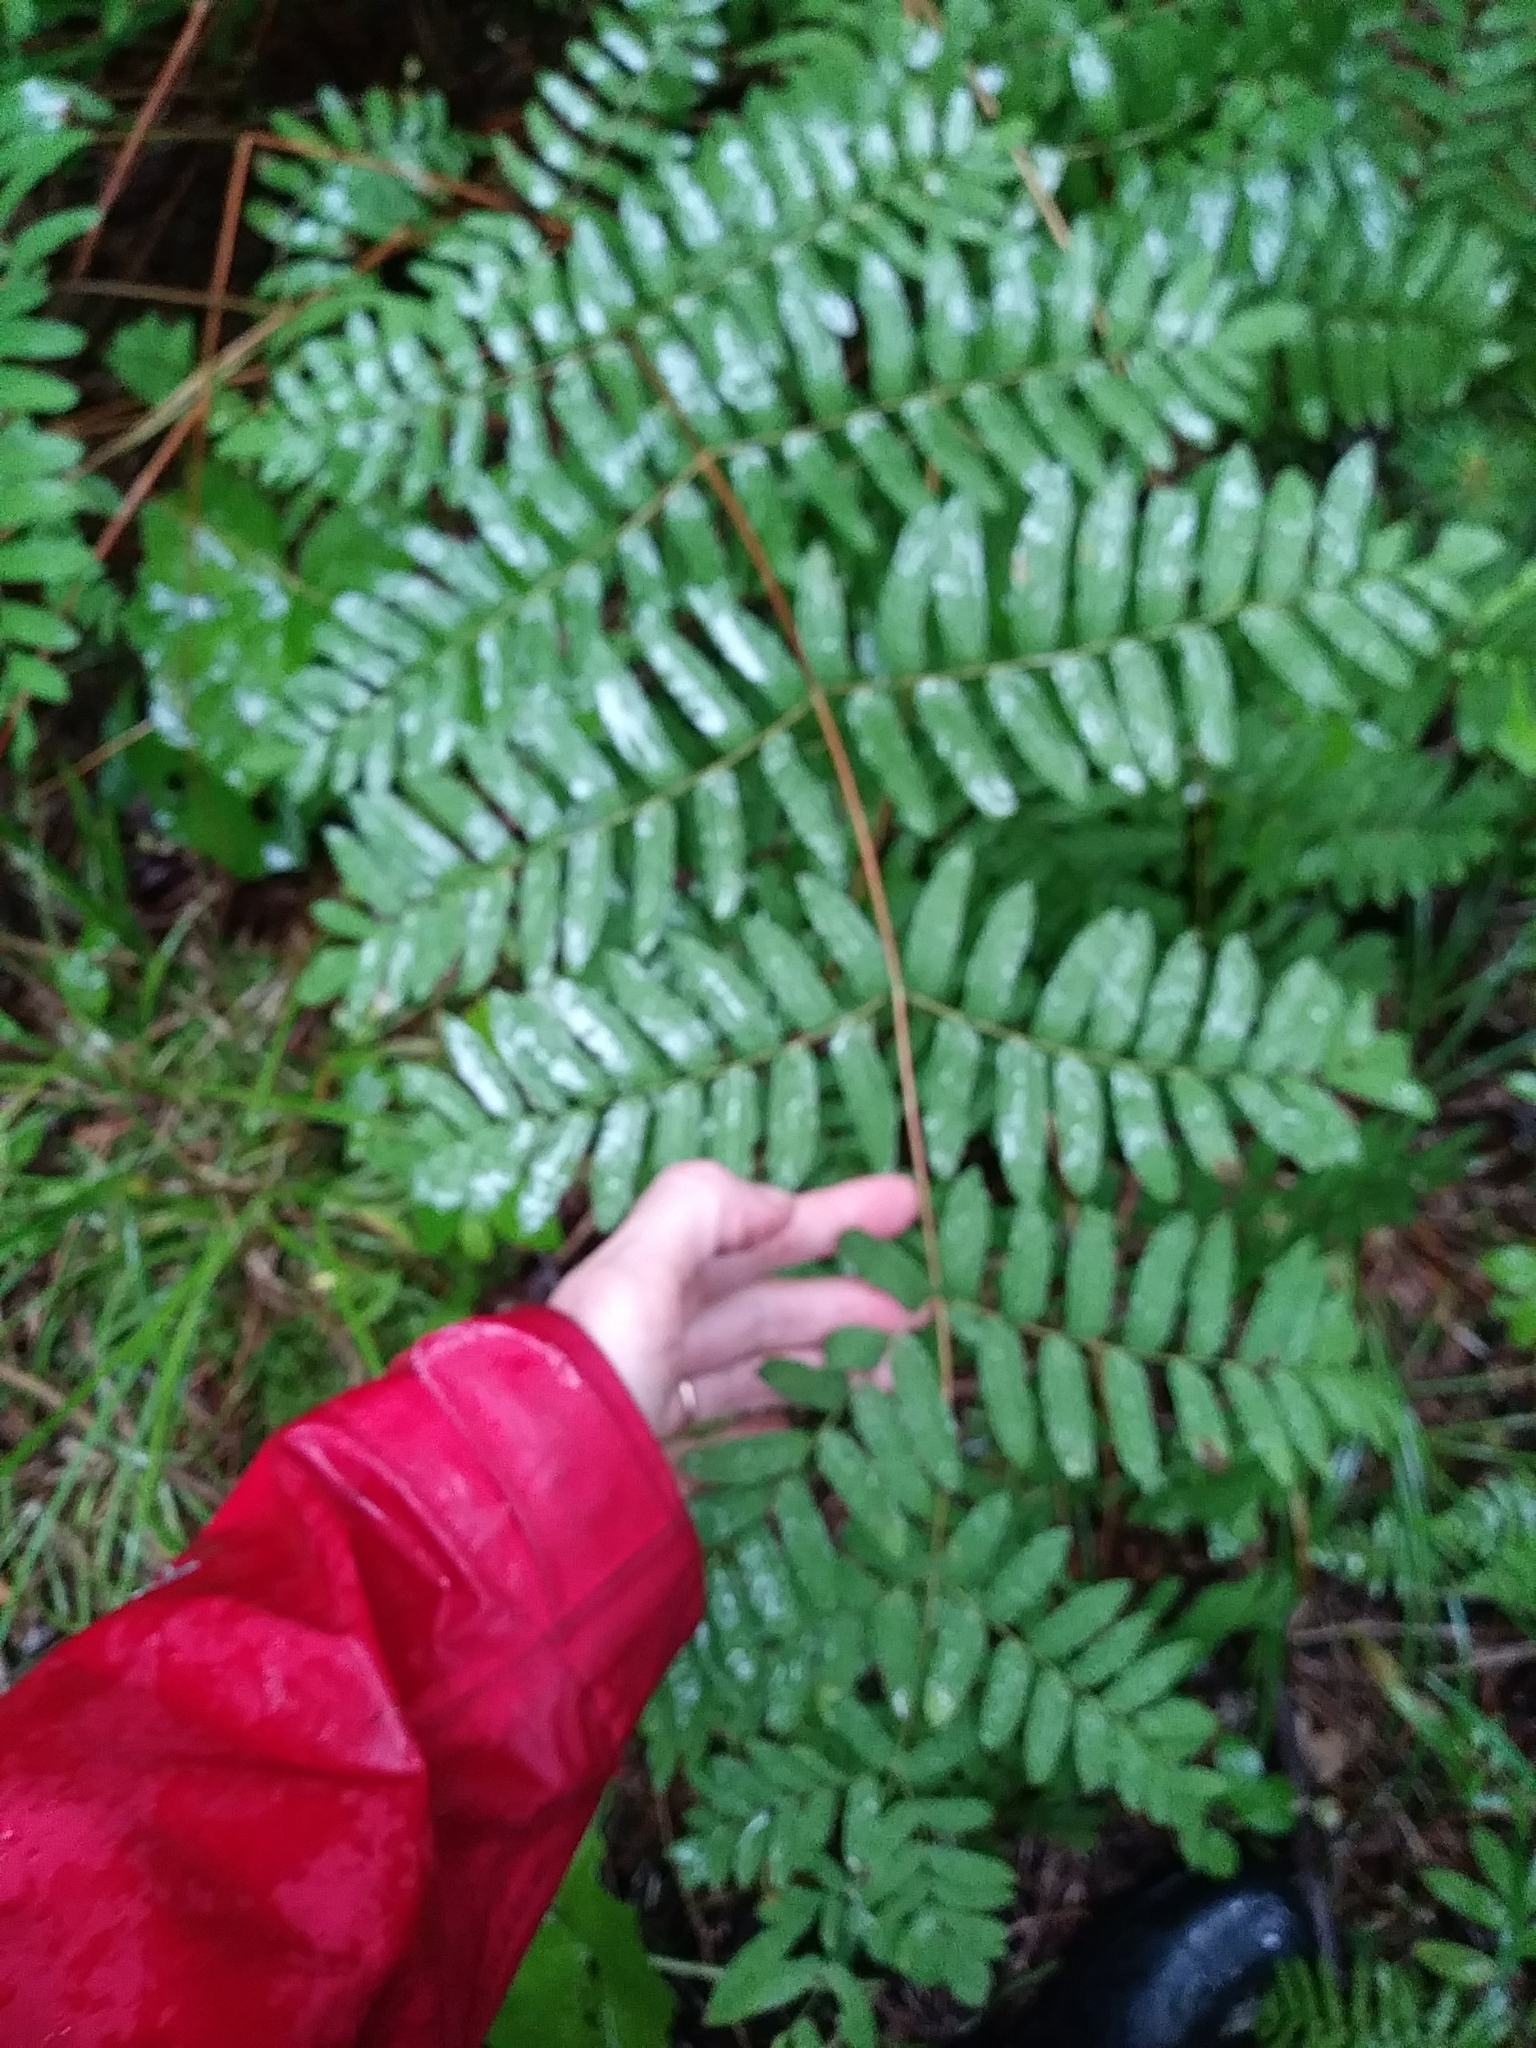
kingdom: Plantae
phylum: Tracheophyta
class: Polypodiopsida
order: Osmundales
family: Osmundaceae
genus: Osmunda
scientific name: Osmunda spectabilis
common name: American royal fern
